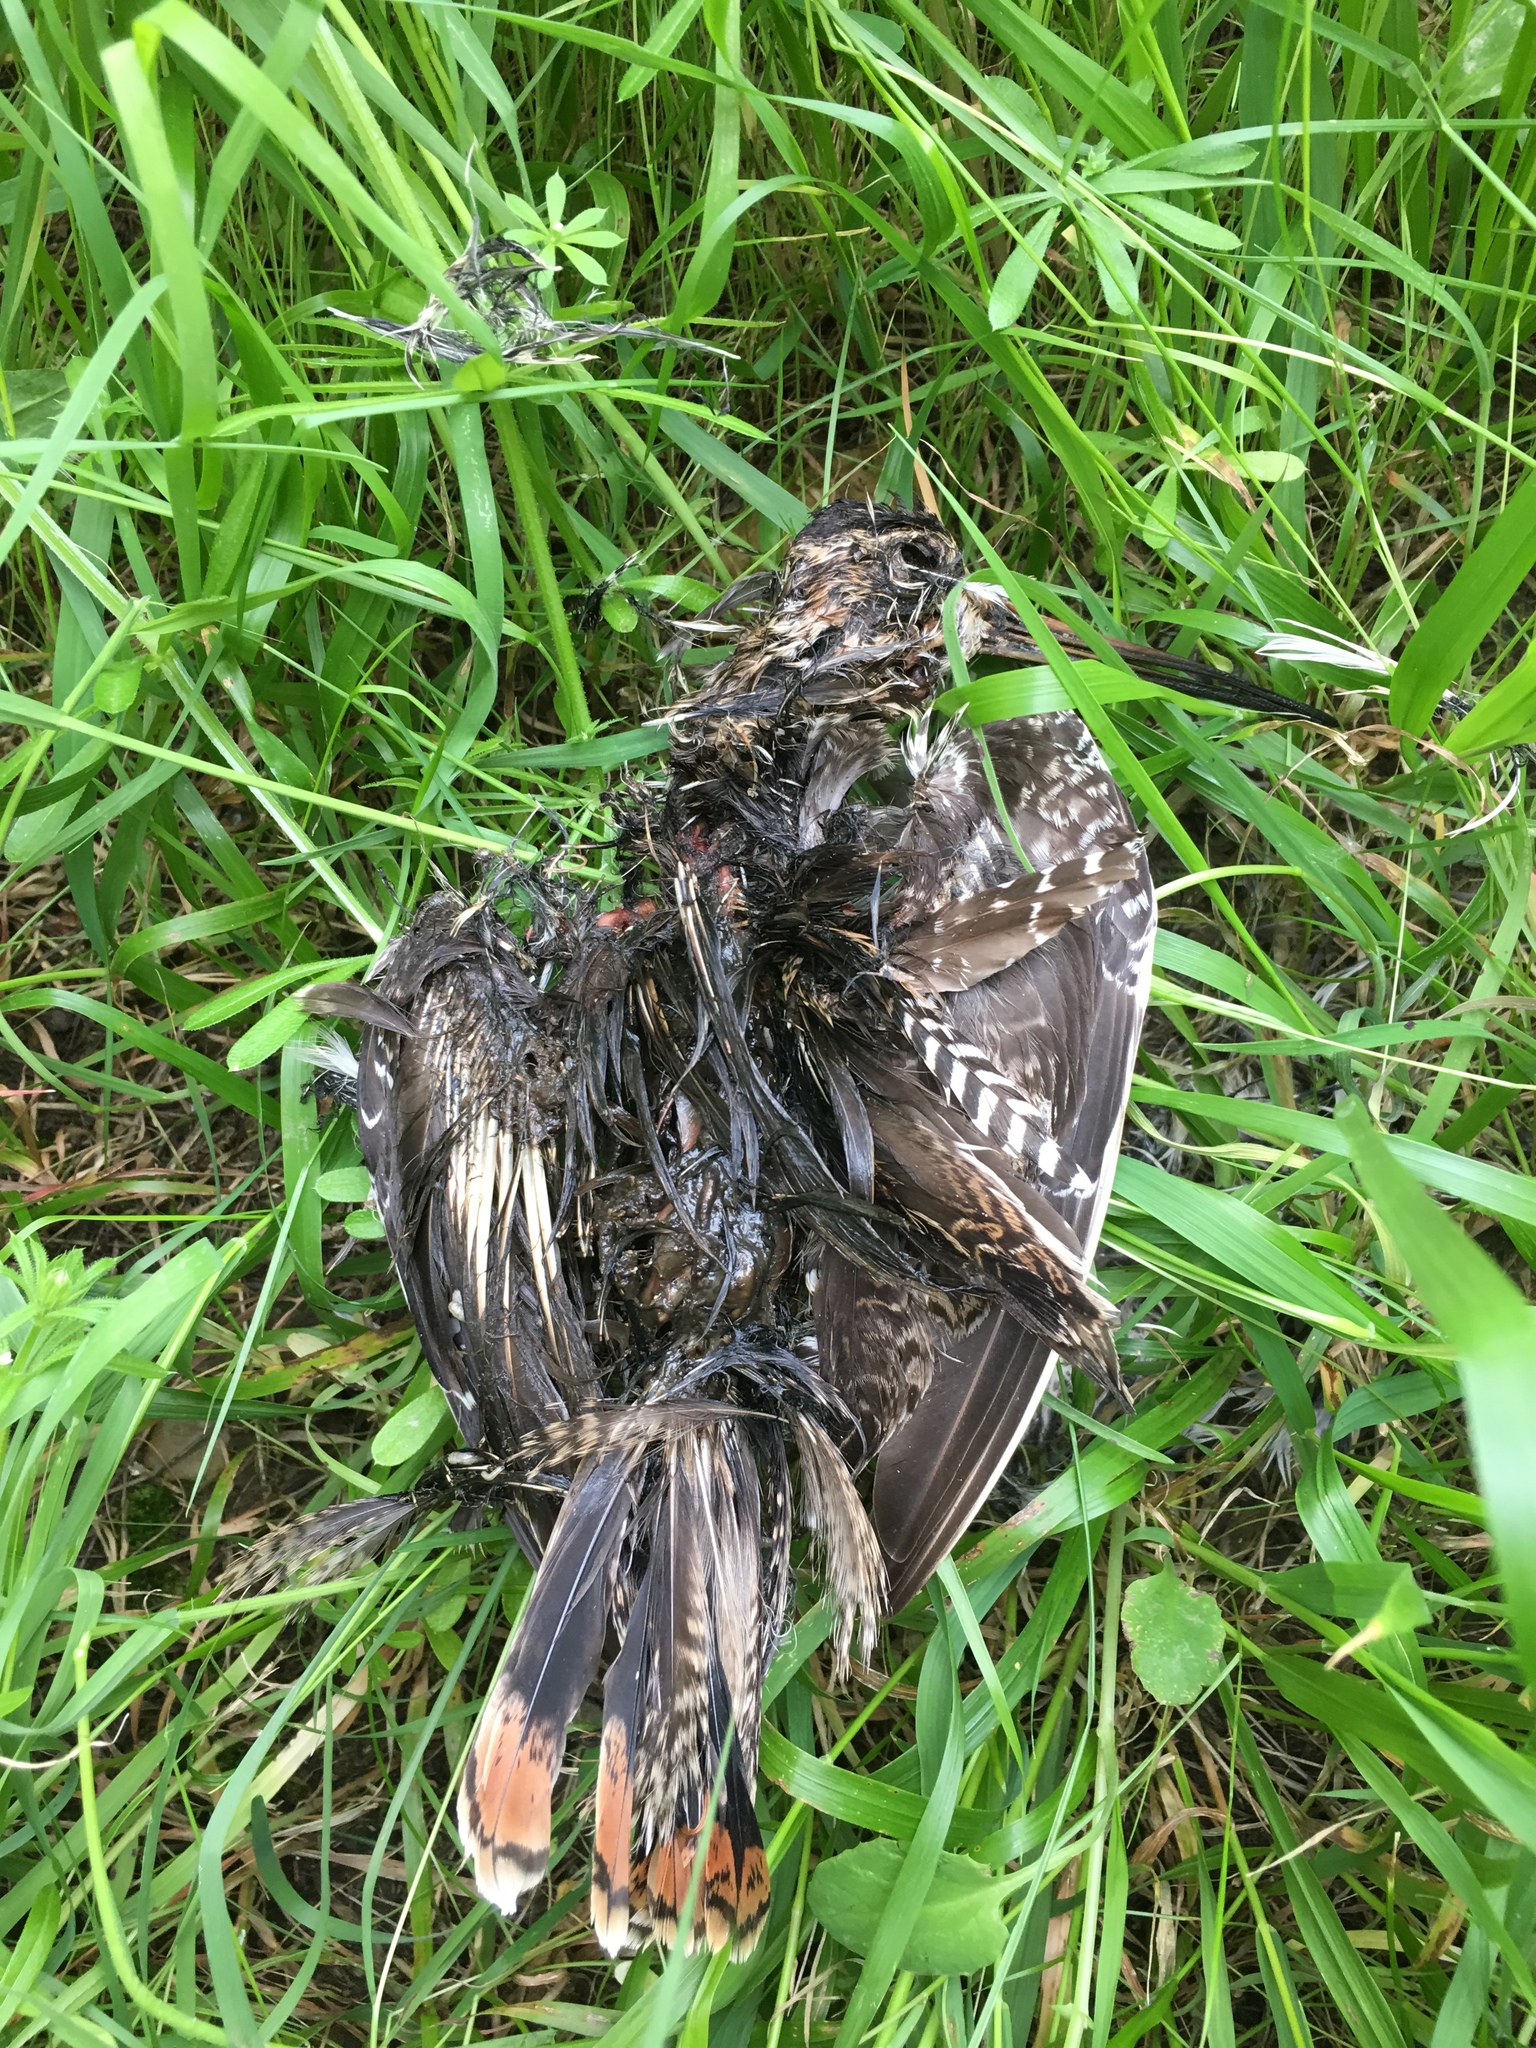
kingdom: Animalia
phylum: Chordata
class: Aves
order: Charadriiformes
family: Scolopacidae
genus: Gallinago
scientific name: Gallinago delicata
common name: Wilson's snipe
